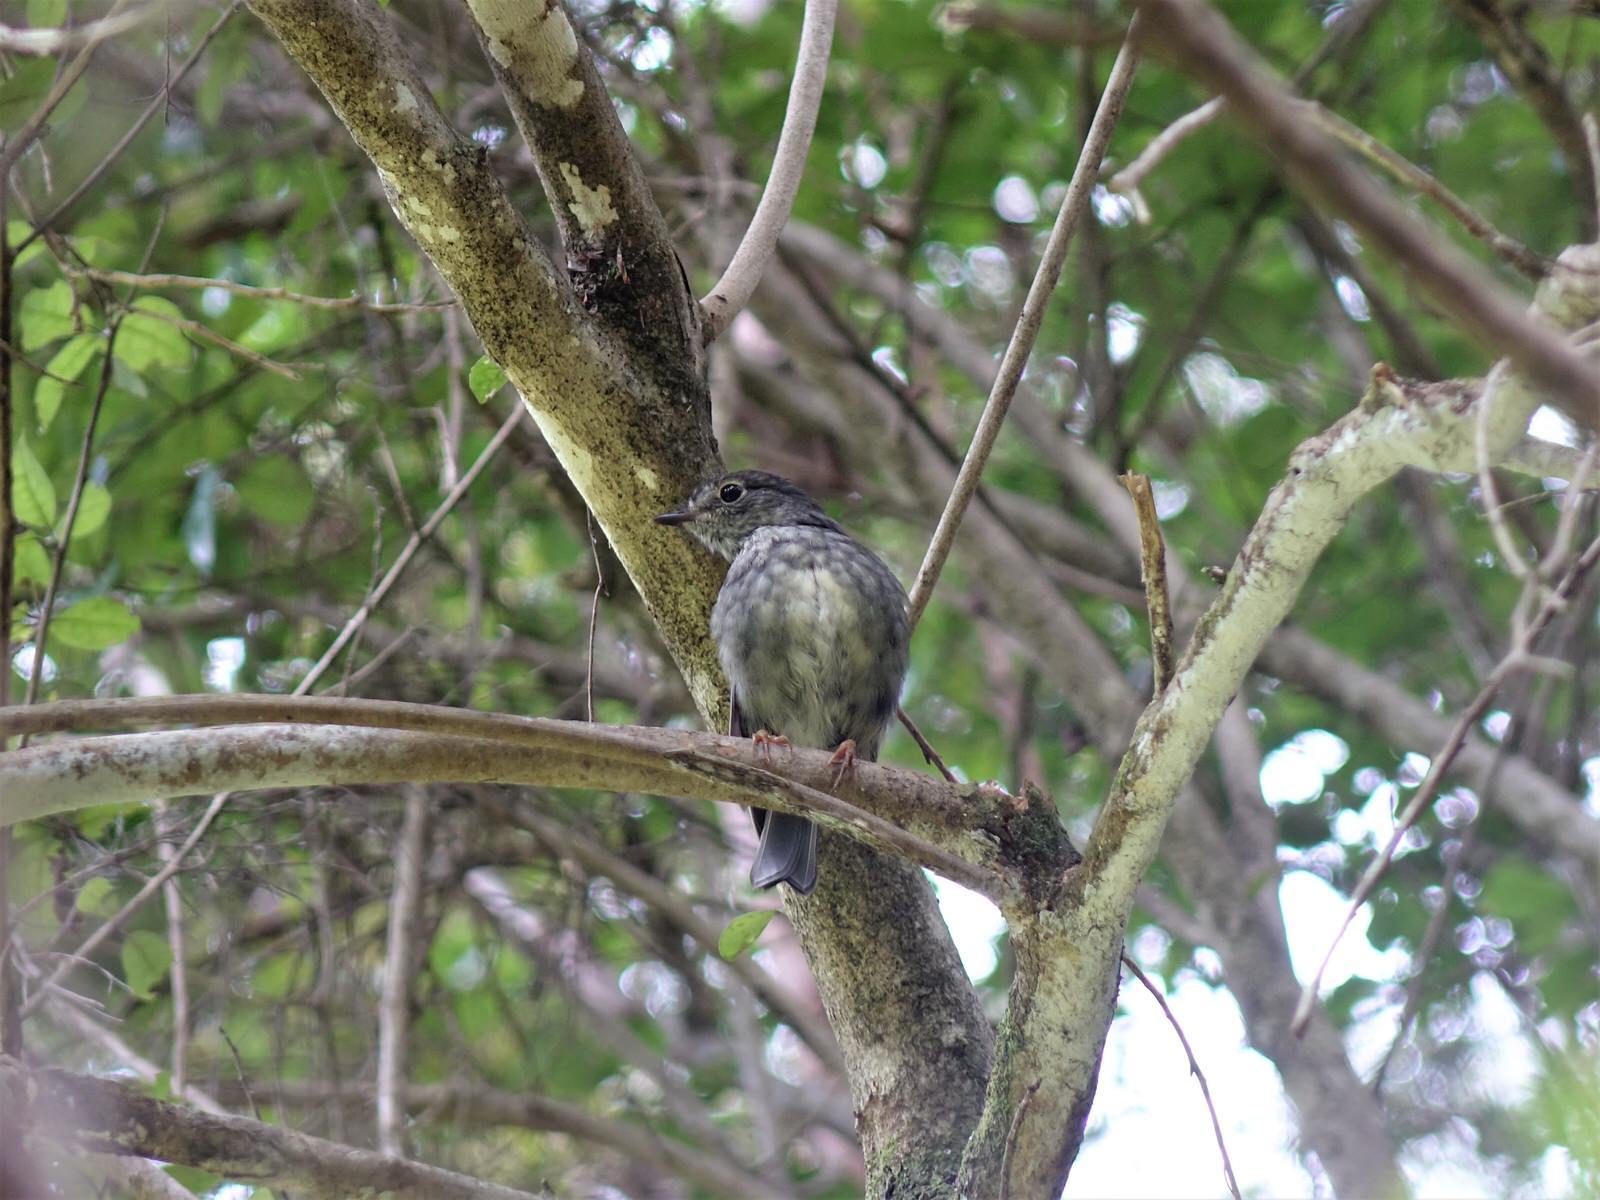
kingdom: Animalia
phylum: Chordata
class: Aves
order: Passeriformes
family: Petroicidae
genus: Petroica
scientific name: Petroica australis
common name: New zealand robin
